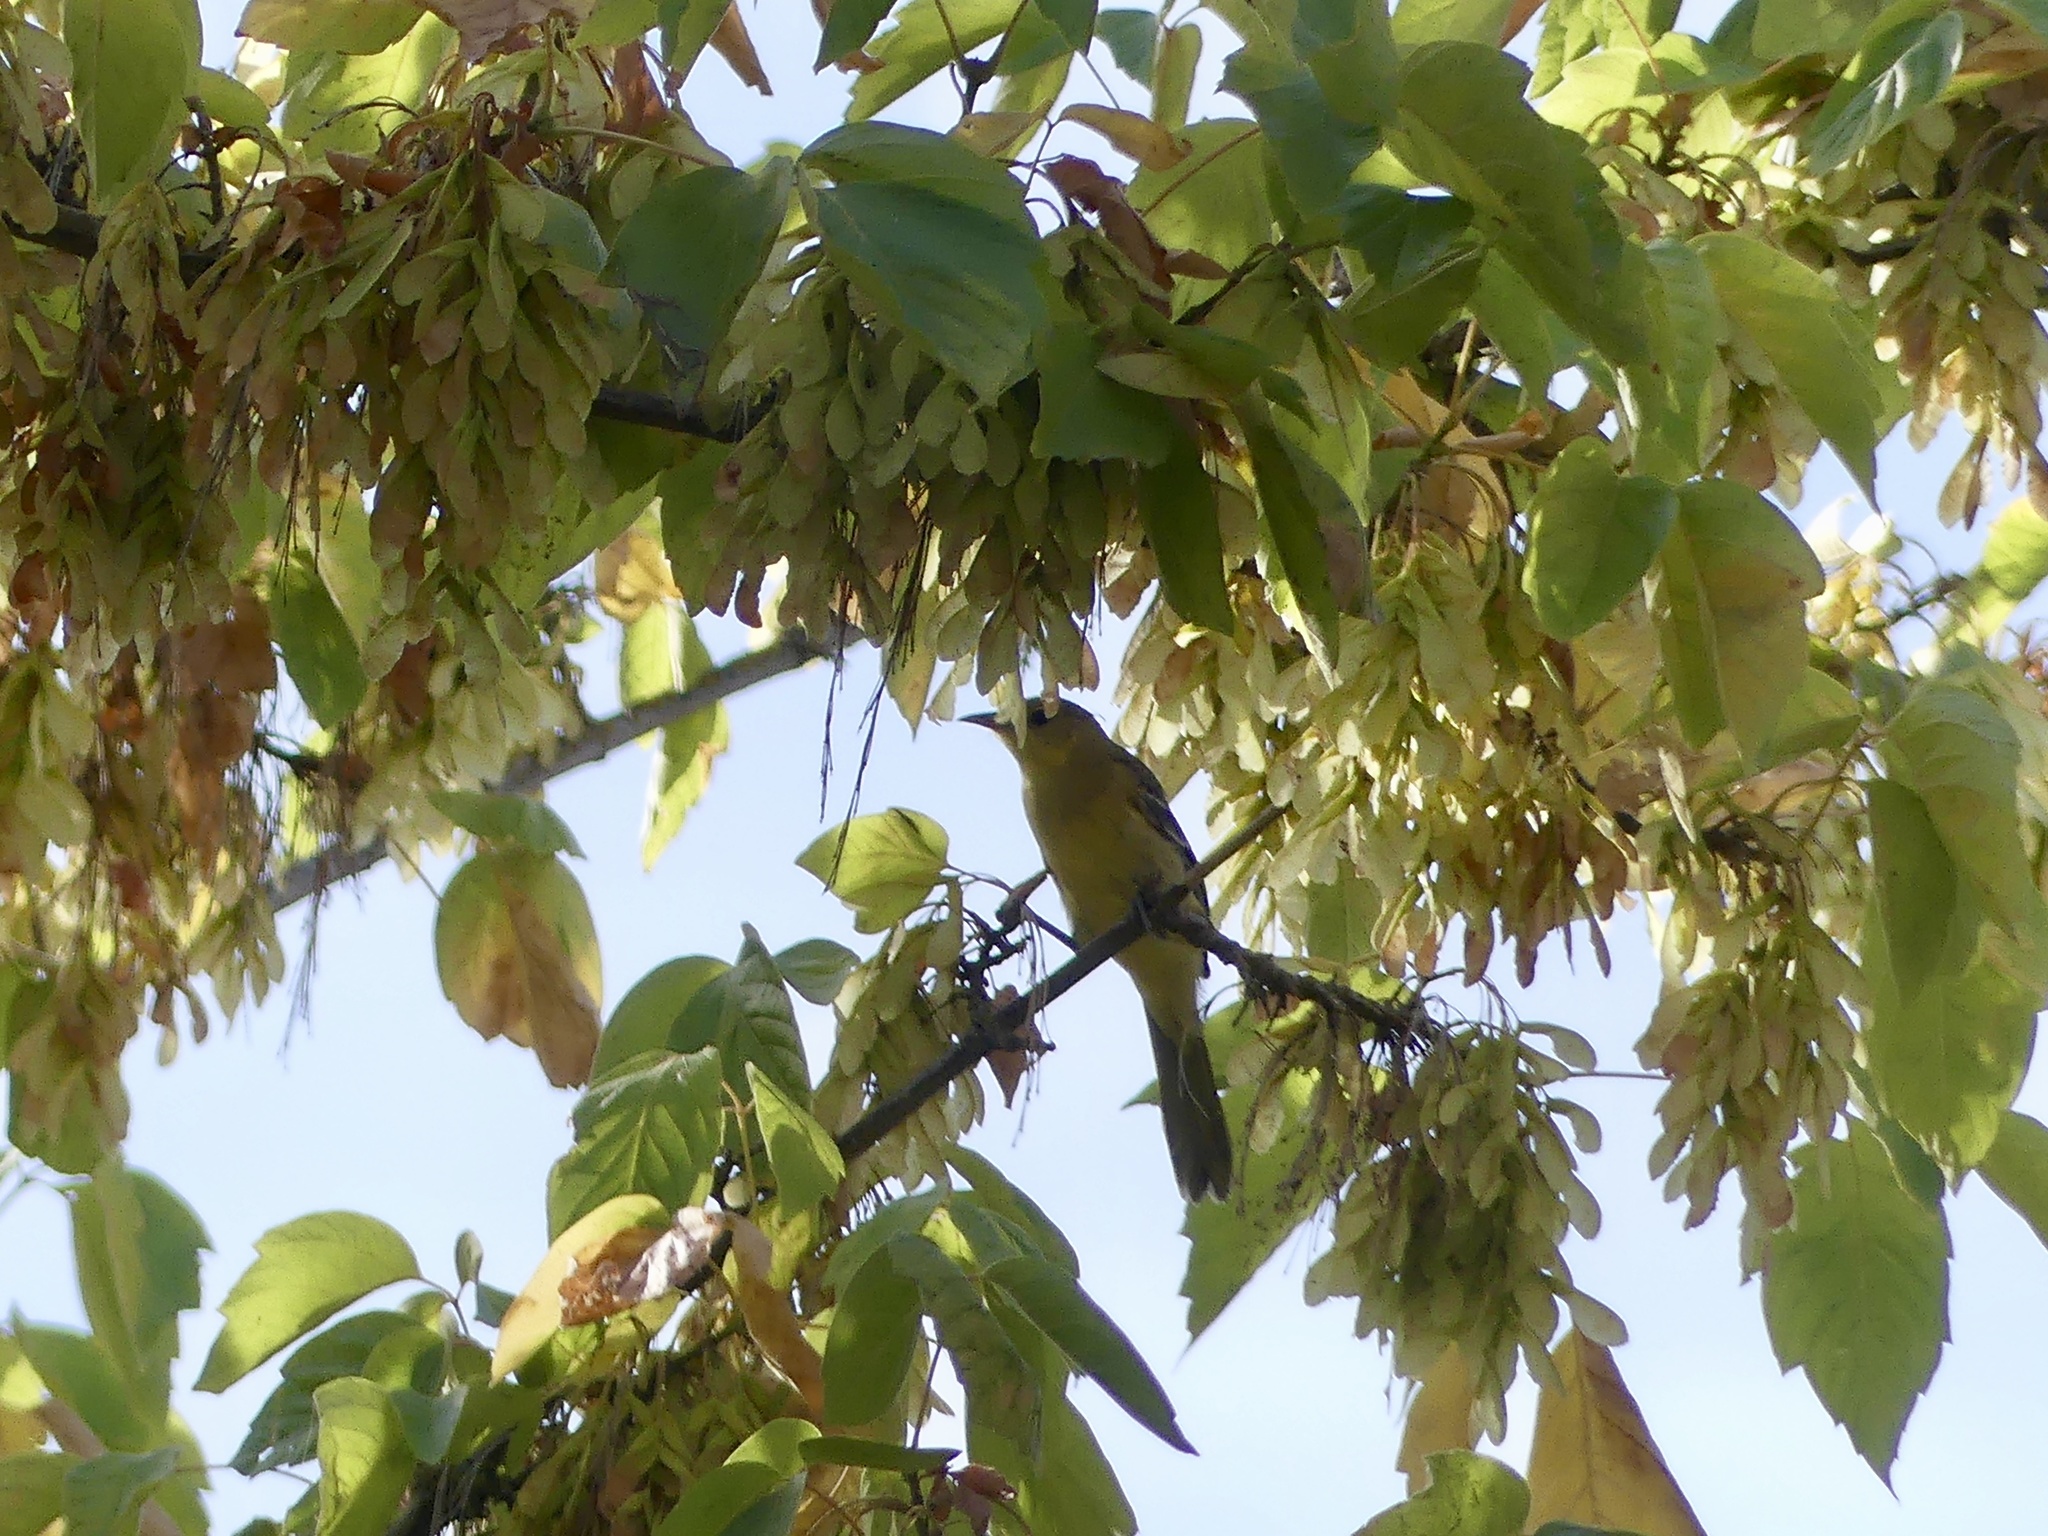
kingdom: Animalia
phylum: Chordata
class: Aves
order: Passeriformes
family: Icteridae
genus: Icterus
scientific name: Icterus cucullatus
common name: Hooded oriole
